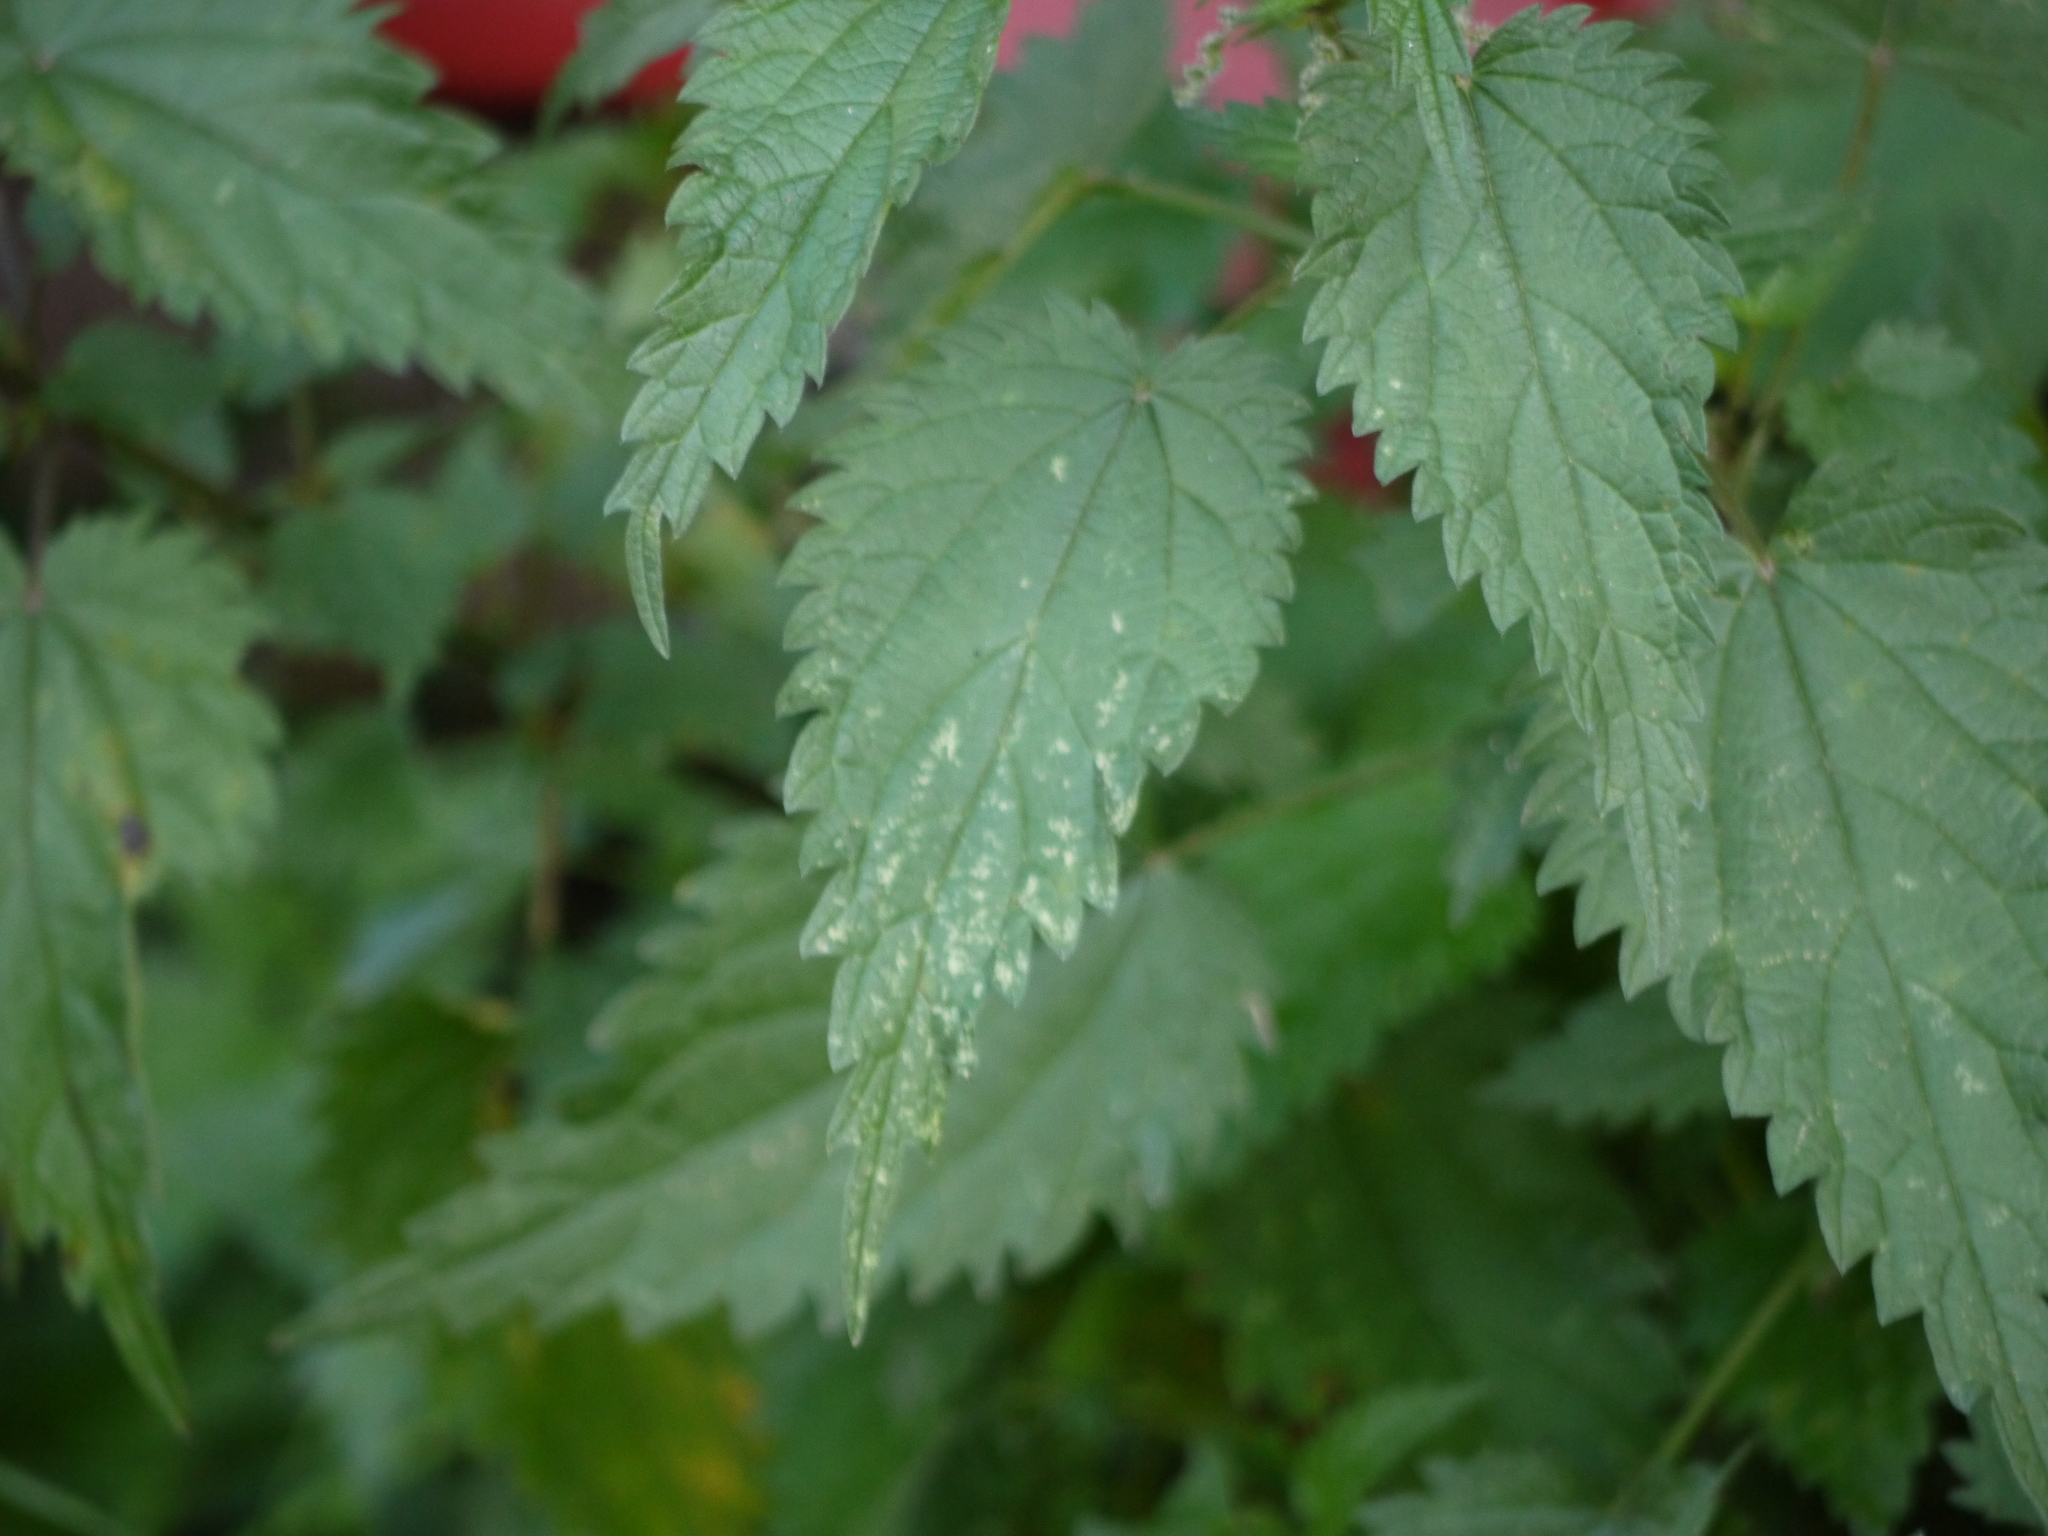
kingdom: Plantae
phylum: Tracheophyta
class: Magnoliopsida
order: Rosales
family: Urticaceae
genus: Urtica
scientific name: Urtica dioica
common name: Common nettle
